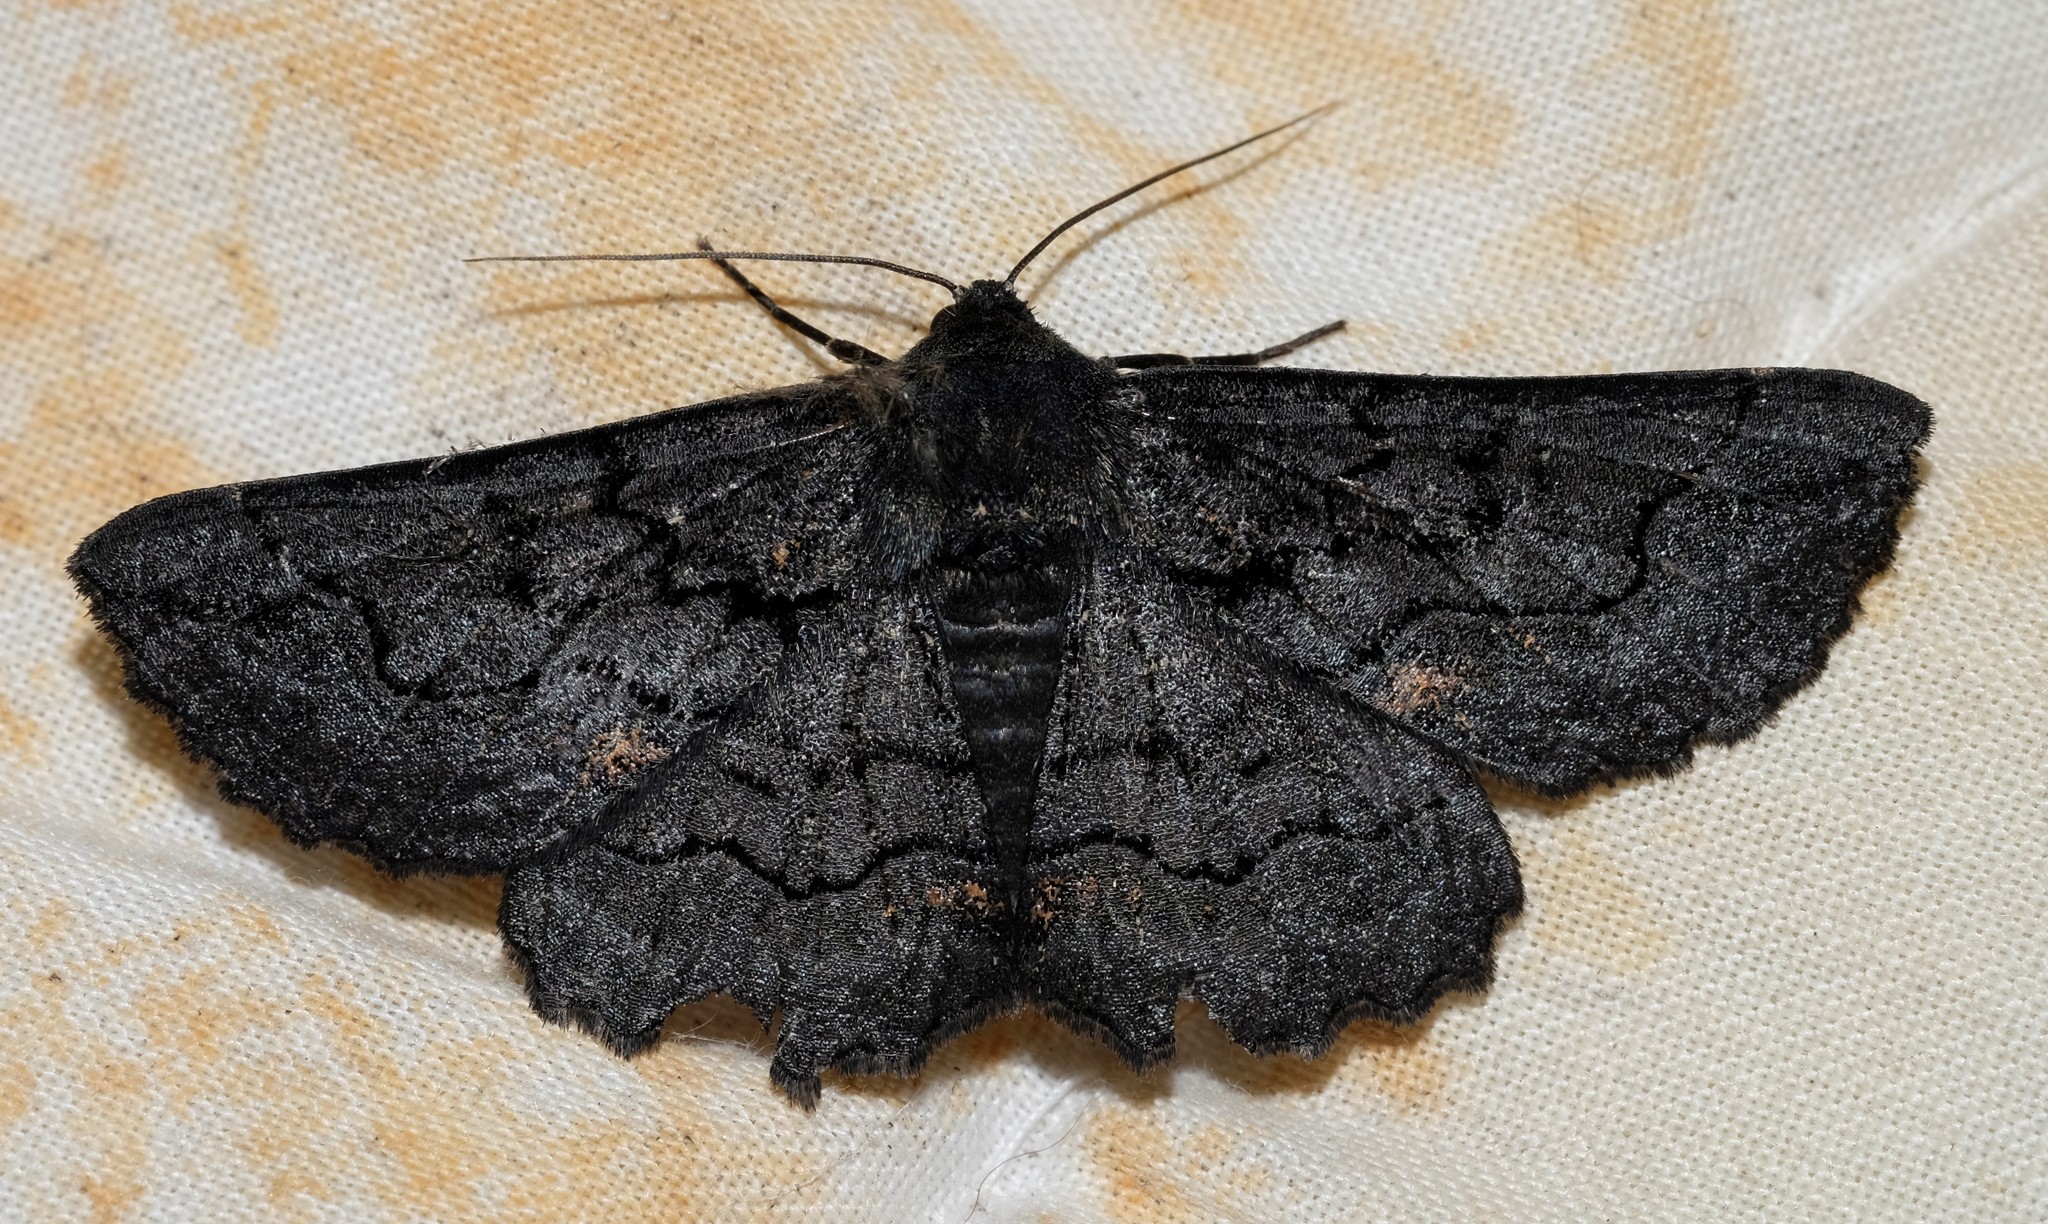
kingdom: Animalia
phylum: Arthropoda
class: Insecta
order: Lepidoptera
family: Geometridae
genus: Melanodes
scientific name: Melanodes anthracitaria
